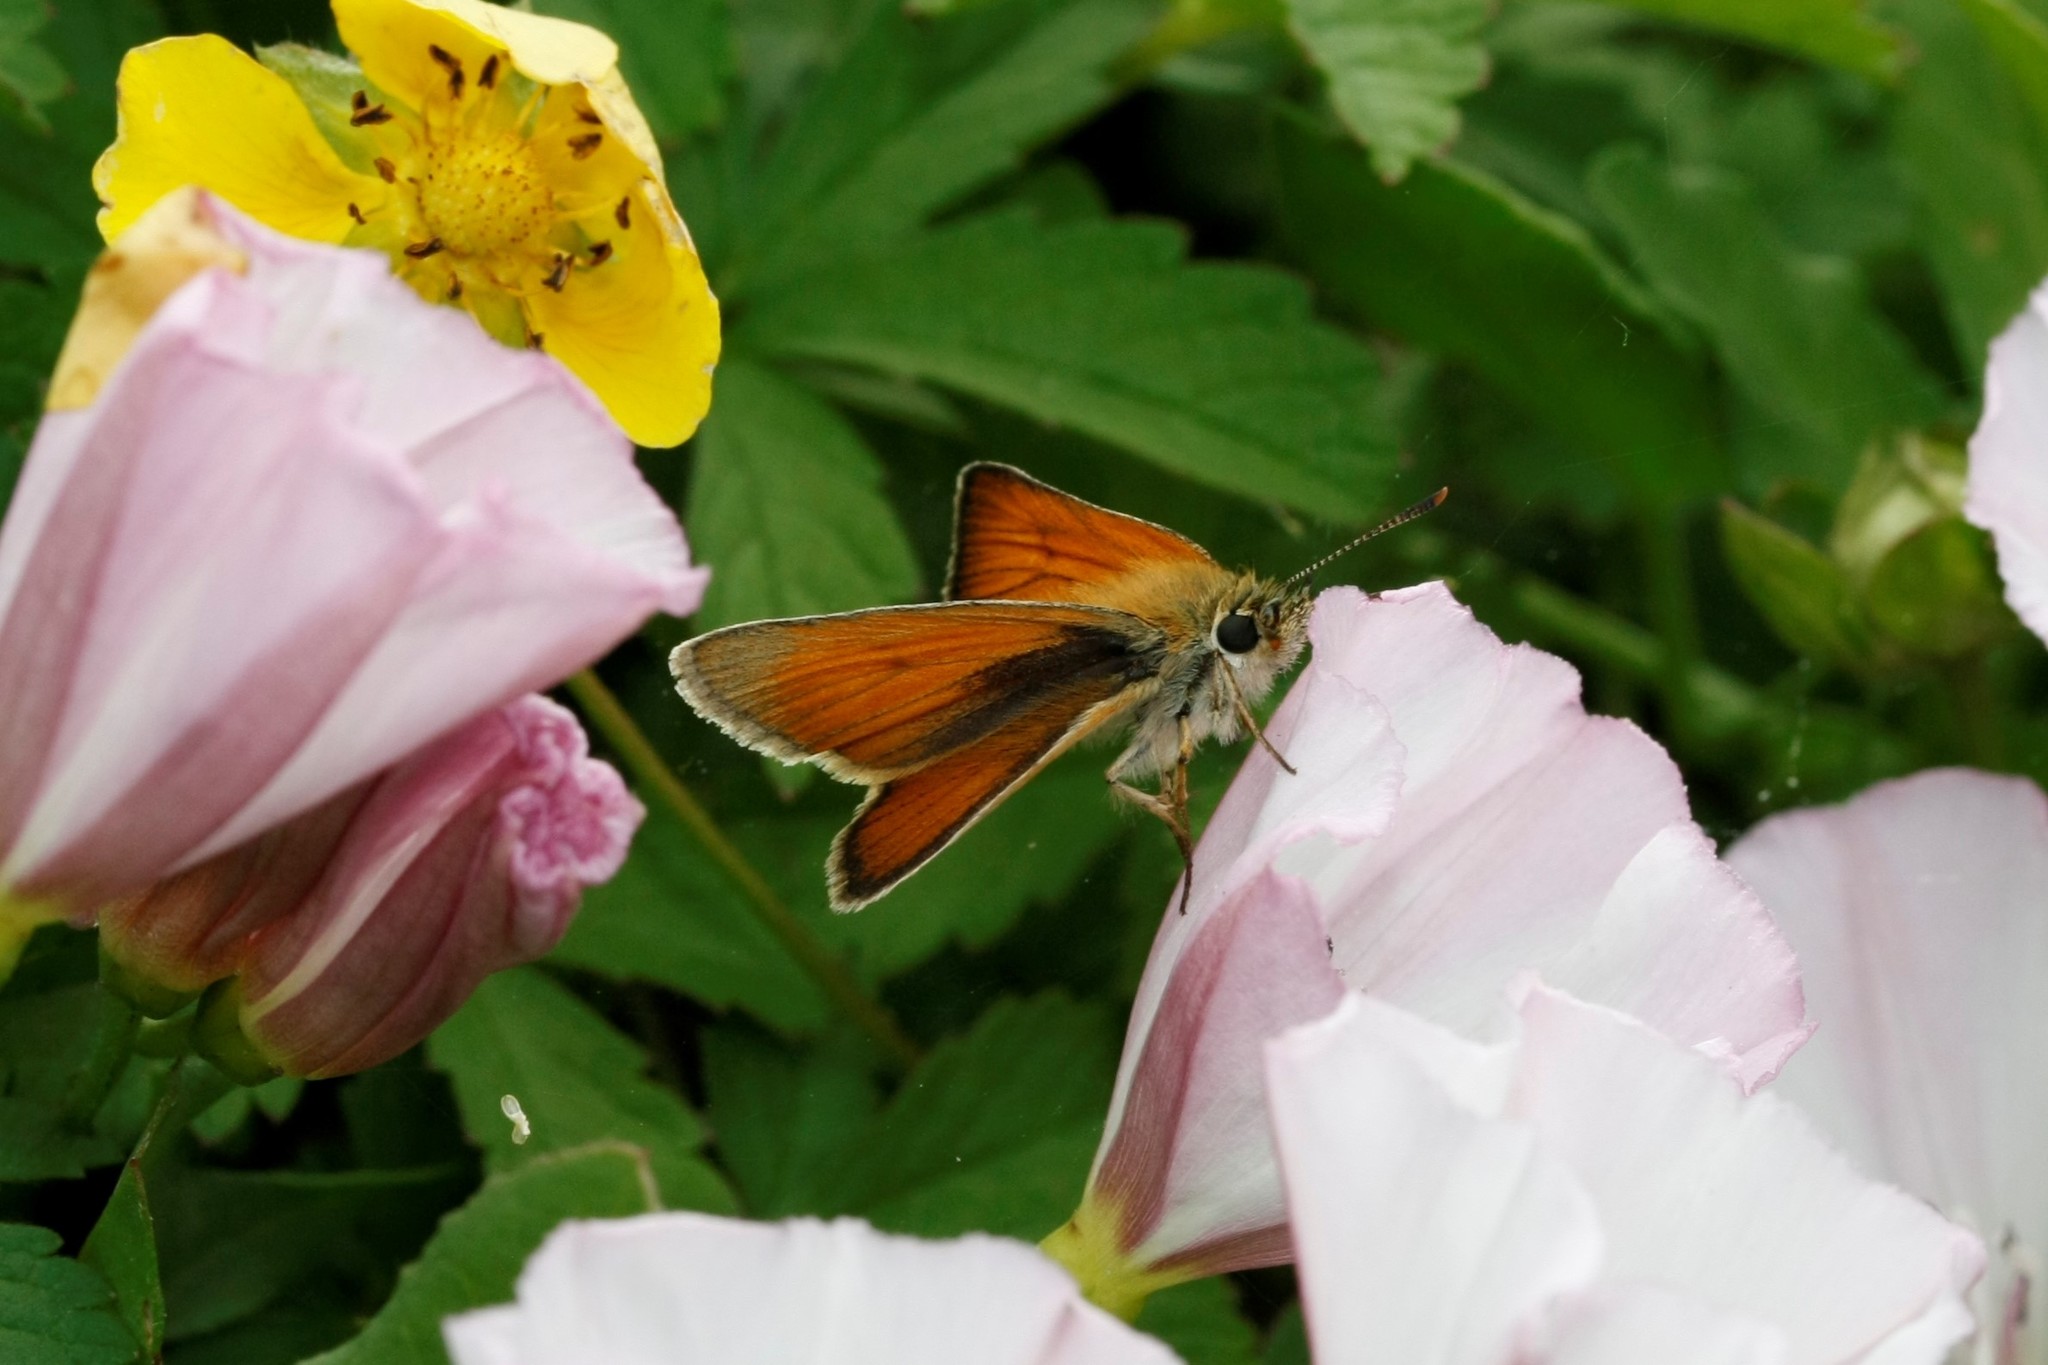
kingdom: Animalia
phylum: Arthropoda
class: Insecta
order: Lepidoptera
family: Hesperiidae
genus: Thymelicus
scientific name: Thymelicus sylvestris
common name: Small skipper
